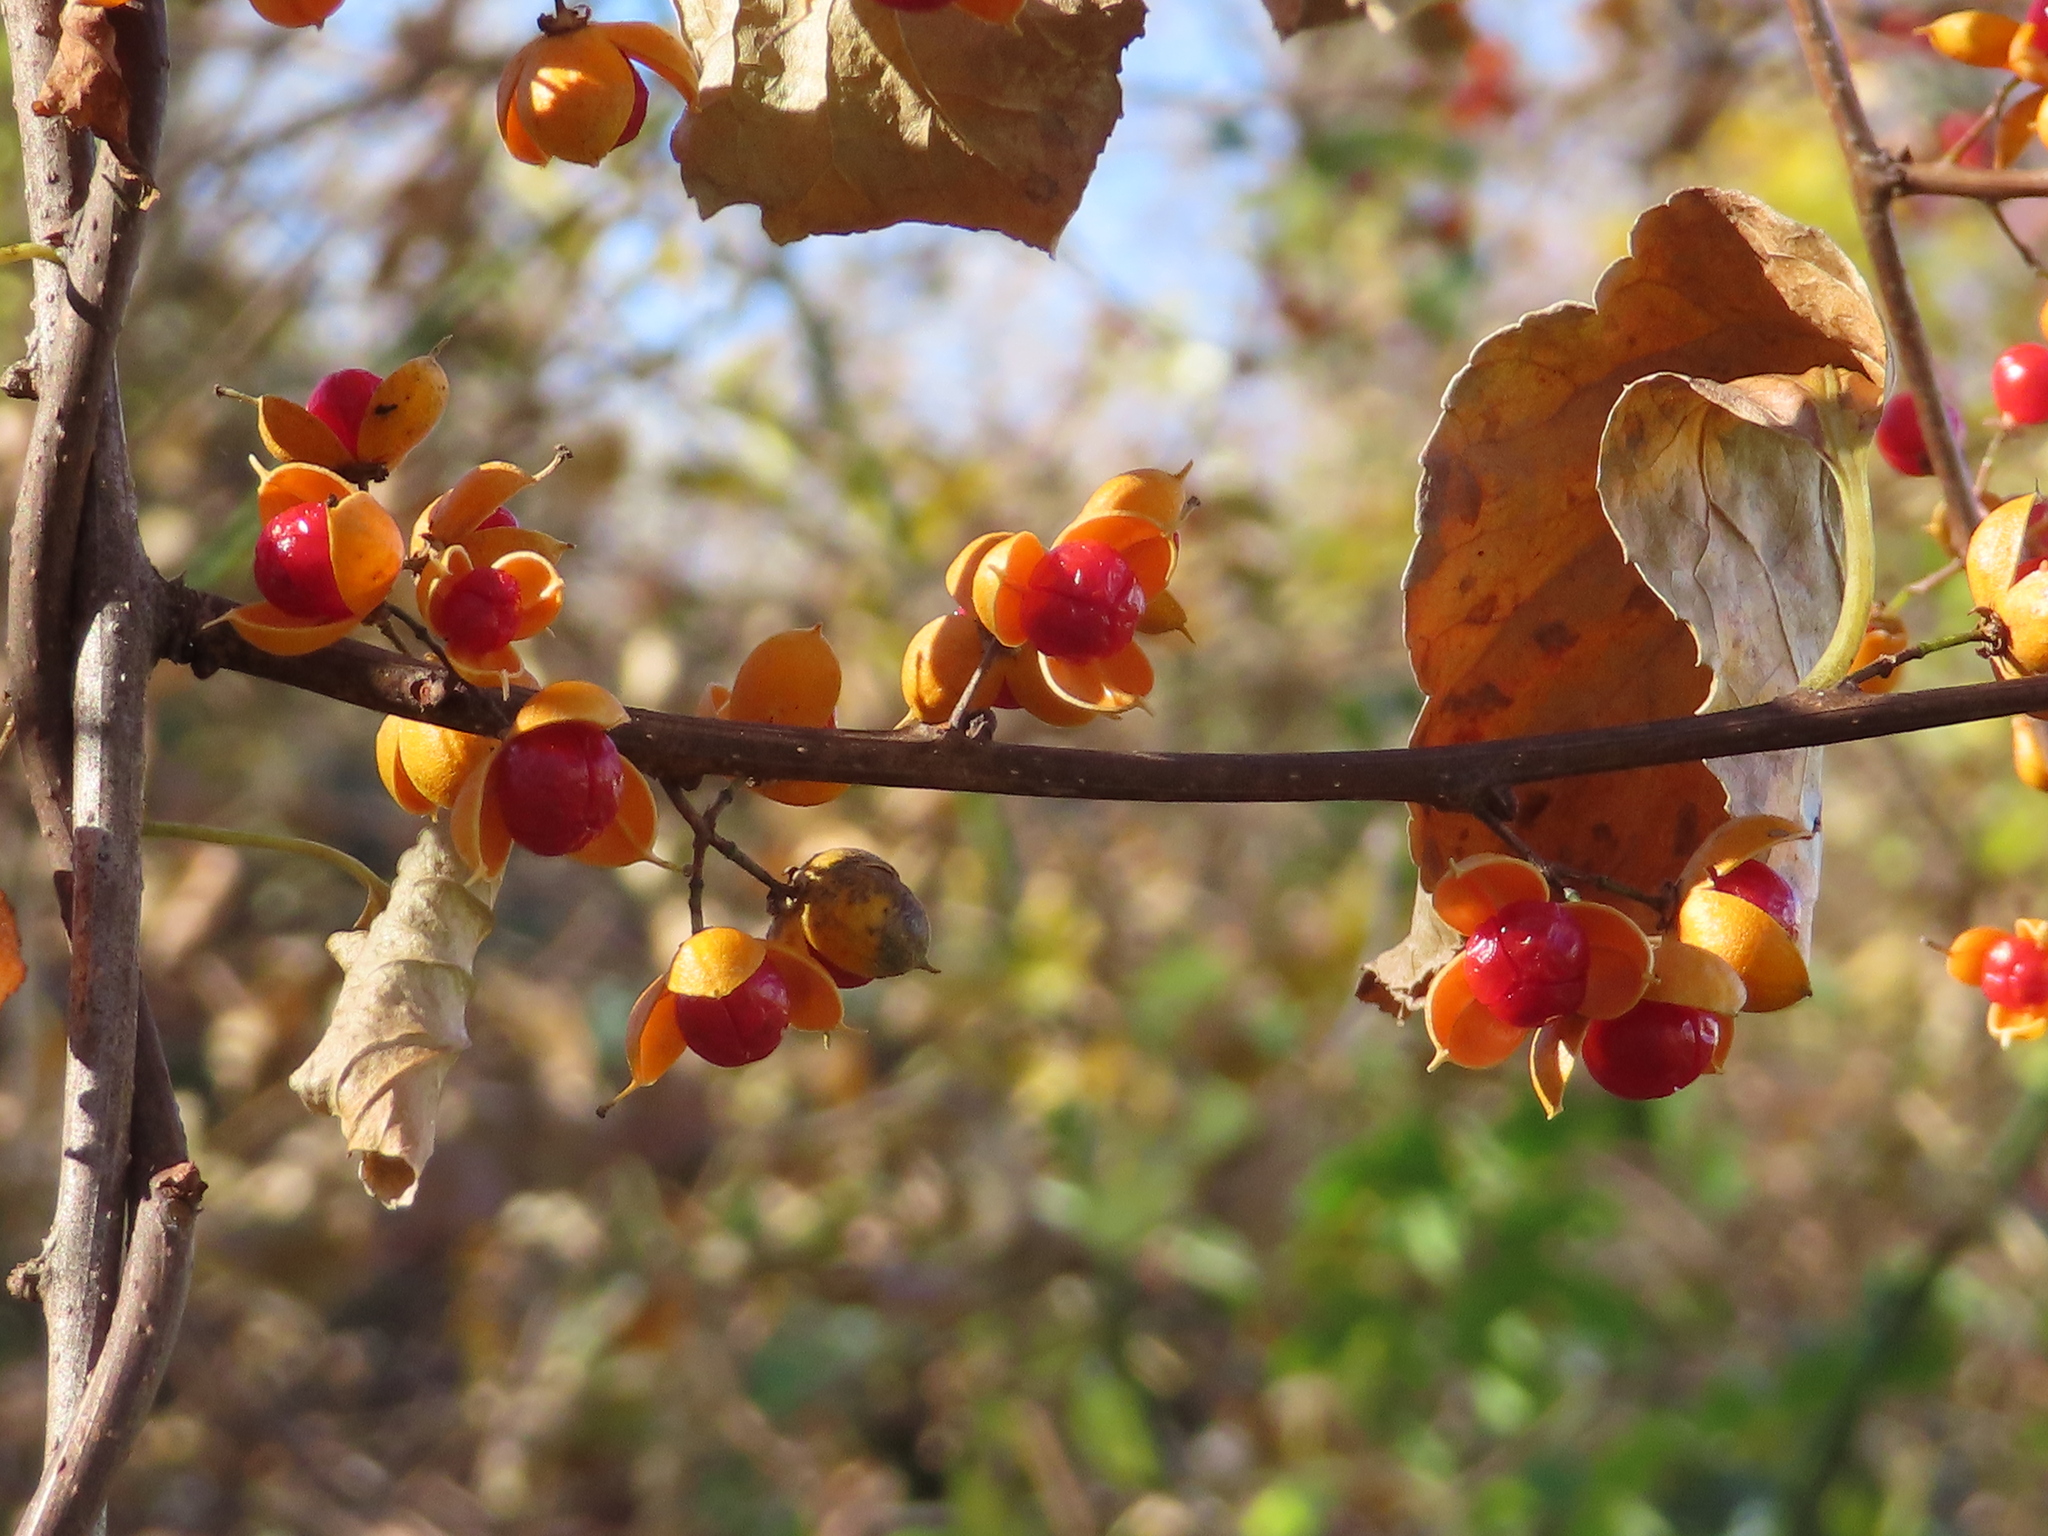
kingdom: Plantae
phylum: Tracheophyta
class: Magnoliopsida
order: Celastrales
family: Celastraceae
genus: Celastrus
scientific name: Celastrus orbiculatus
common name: Oriental bittersweet
